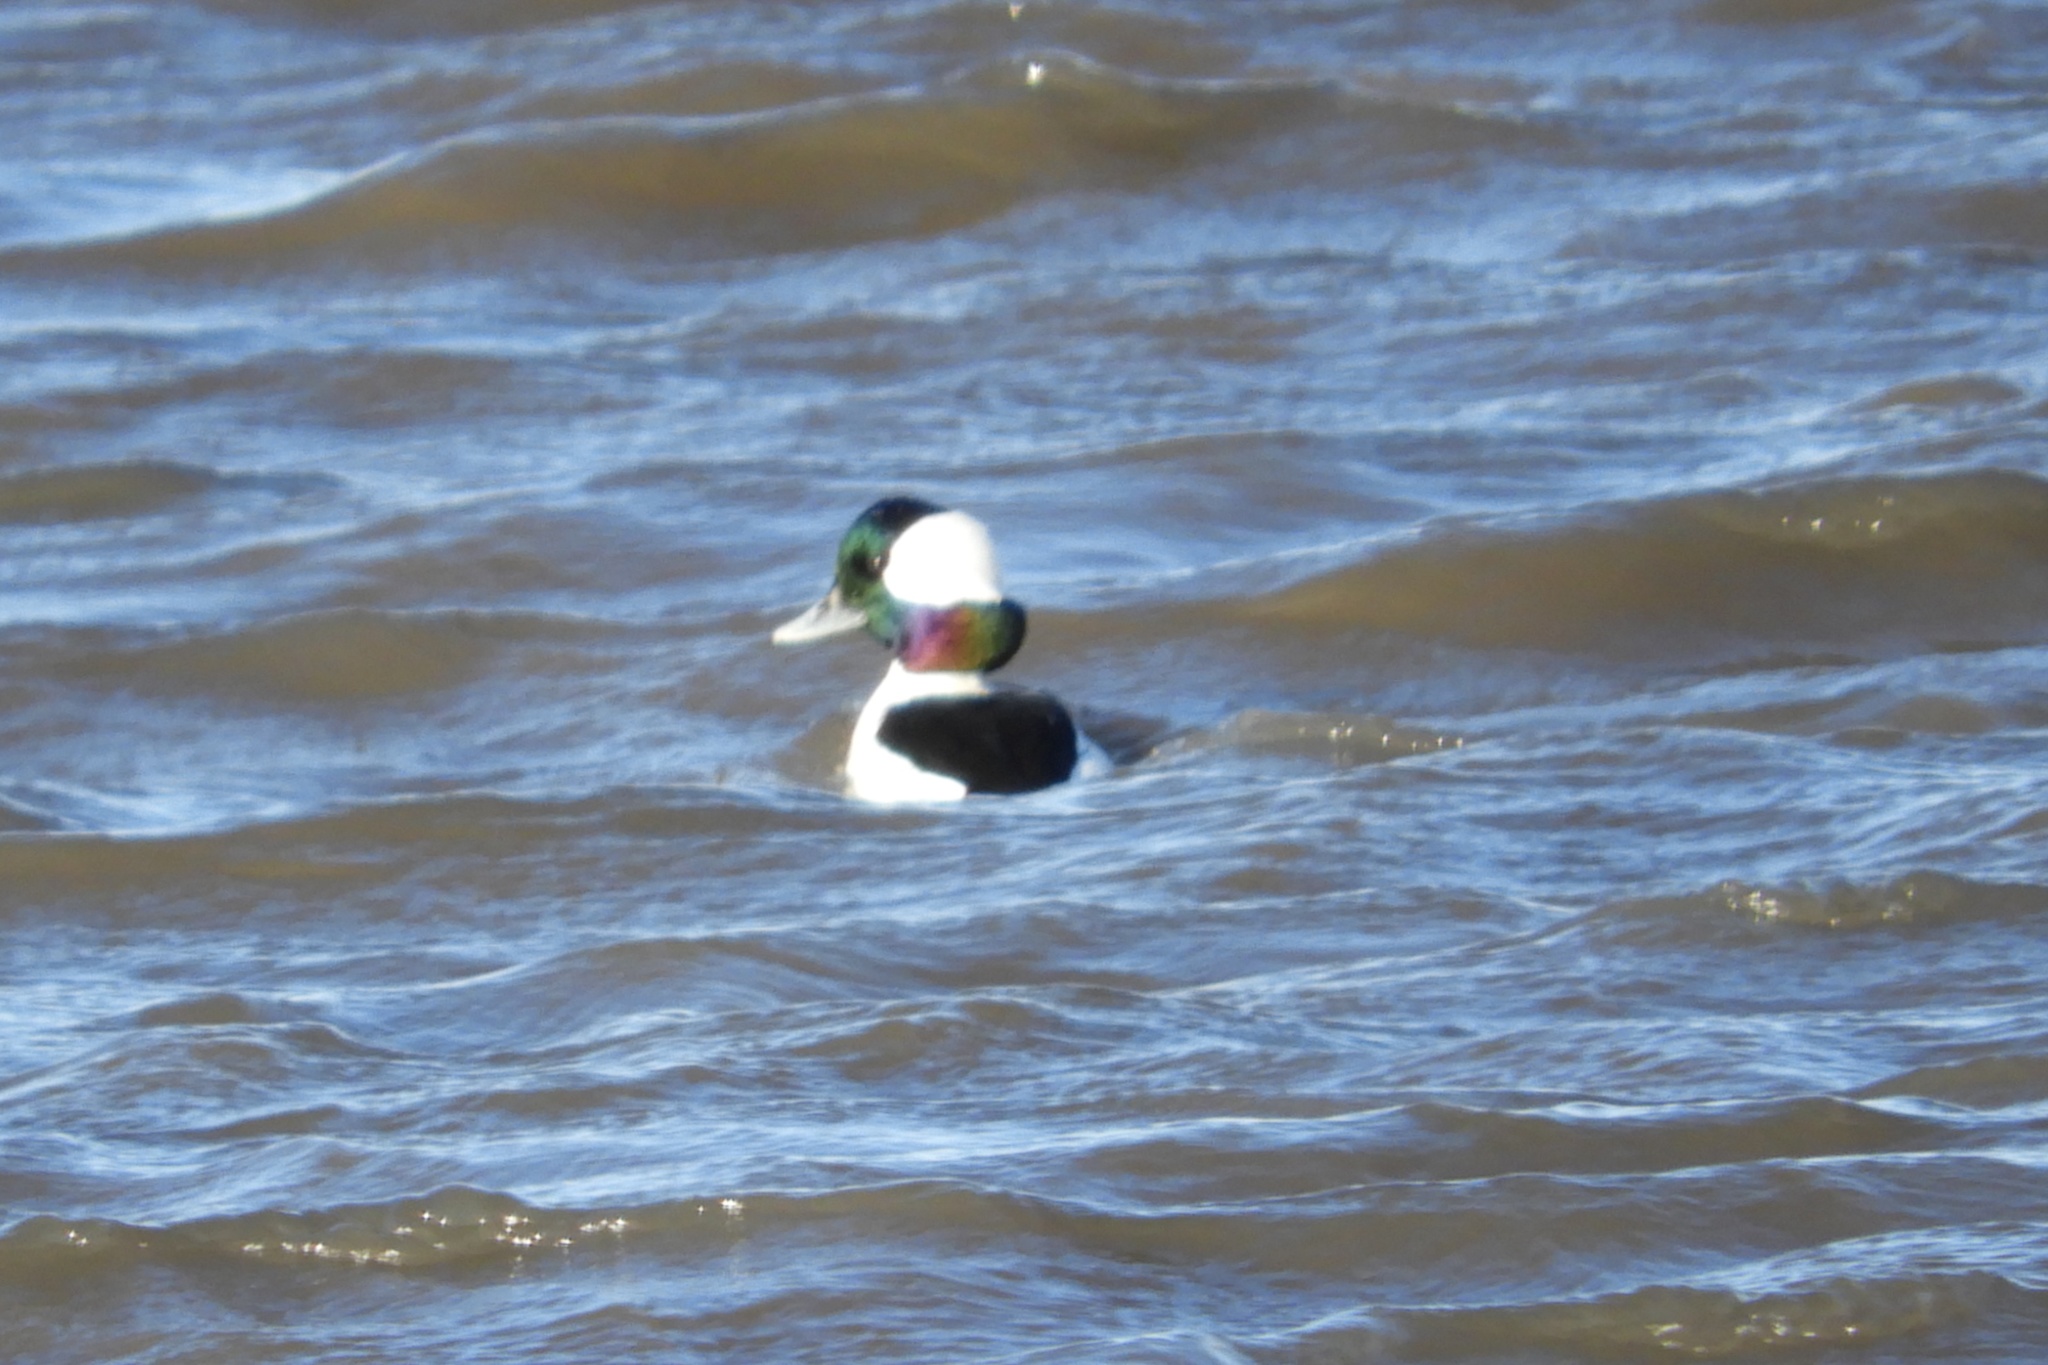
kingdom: Animalia
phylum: Chordata
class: Aves
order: Anseriformes
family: Anatidae
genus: Bucephala
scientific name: Bucephala albeola
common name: Bufflehead
